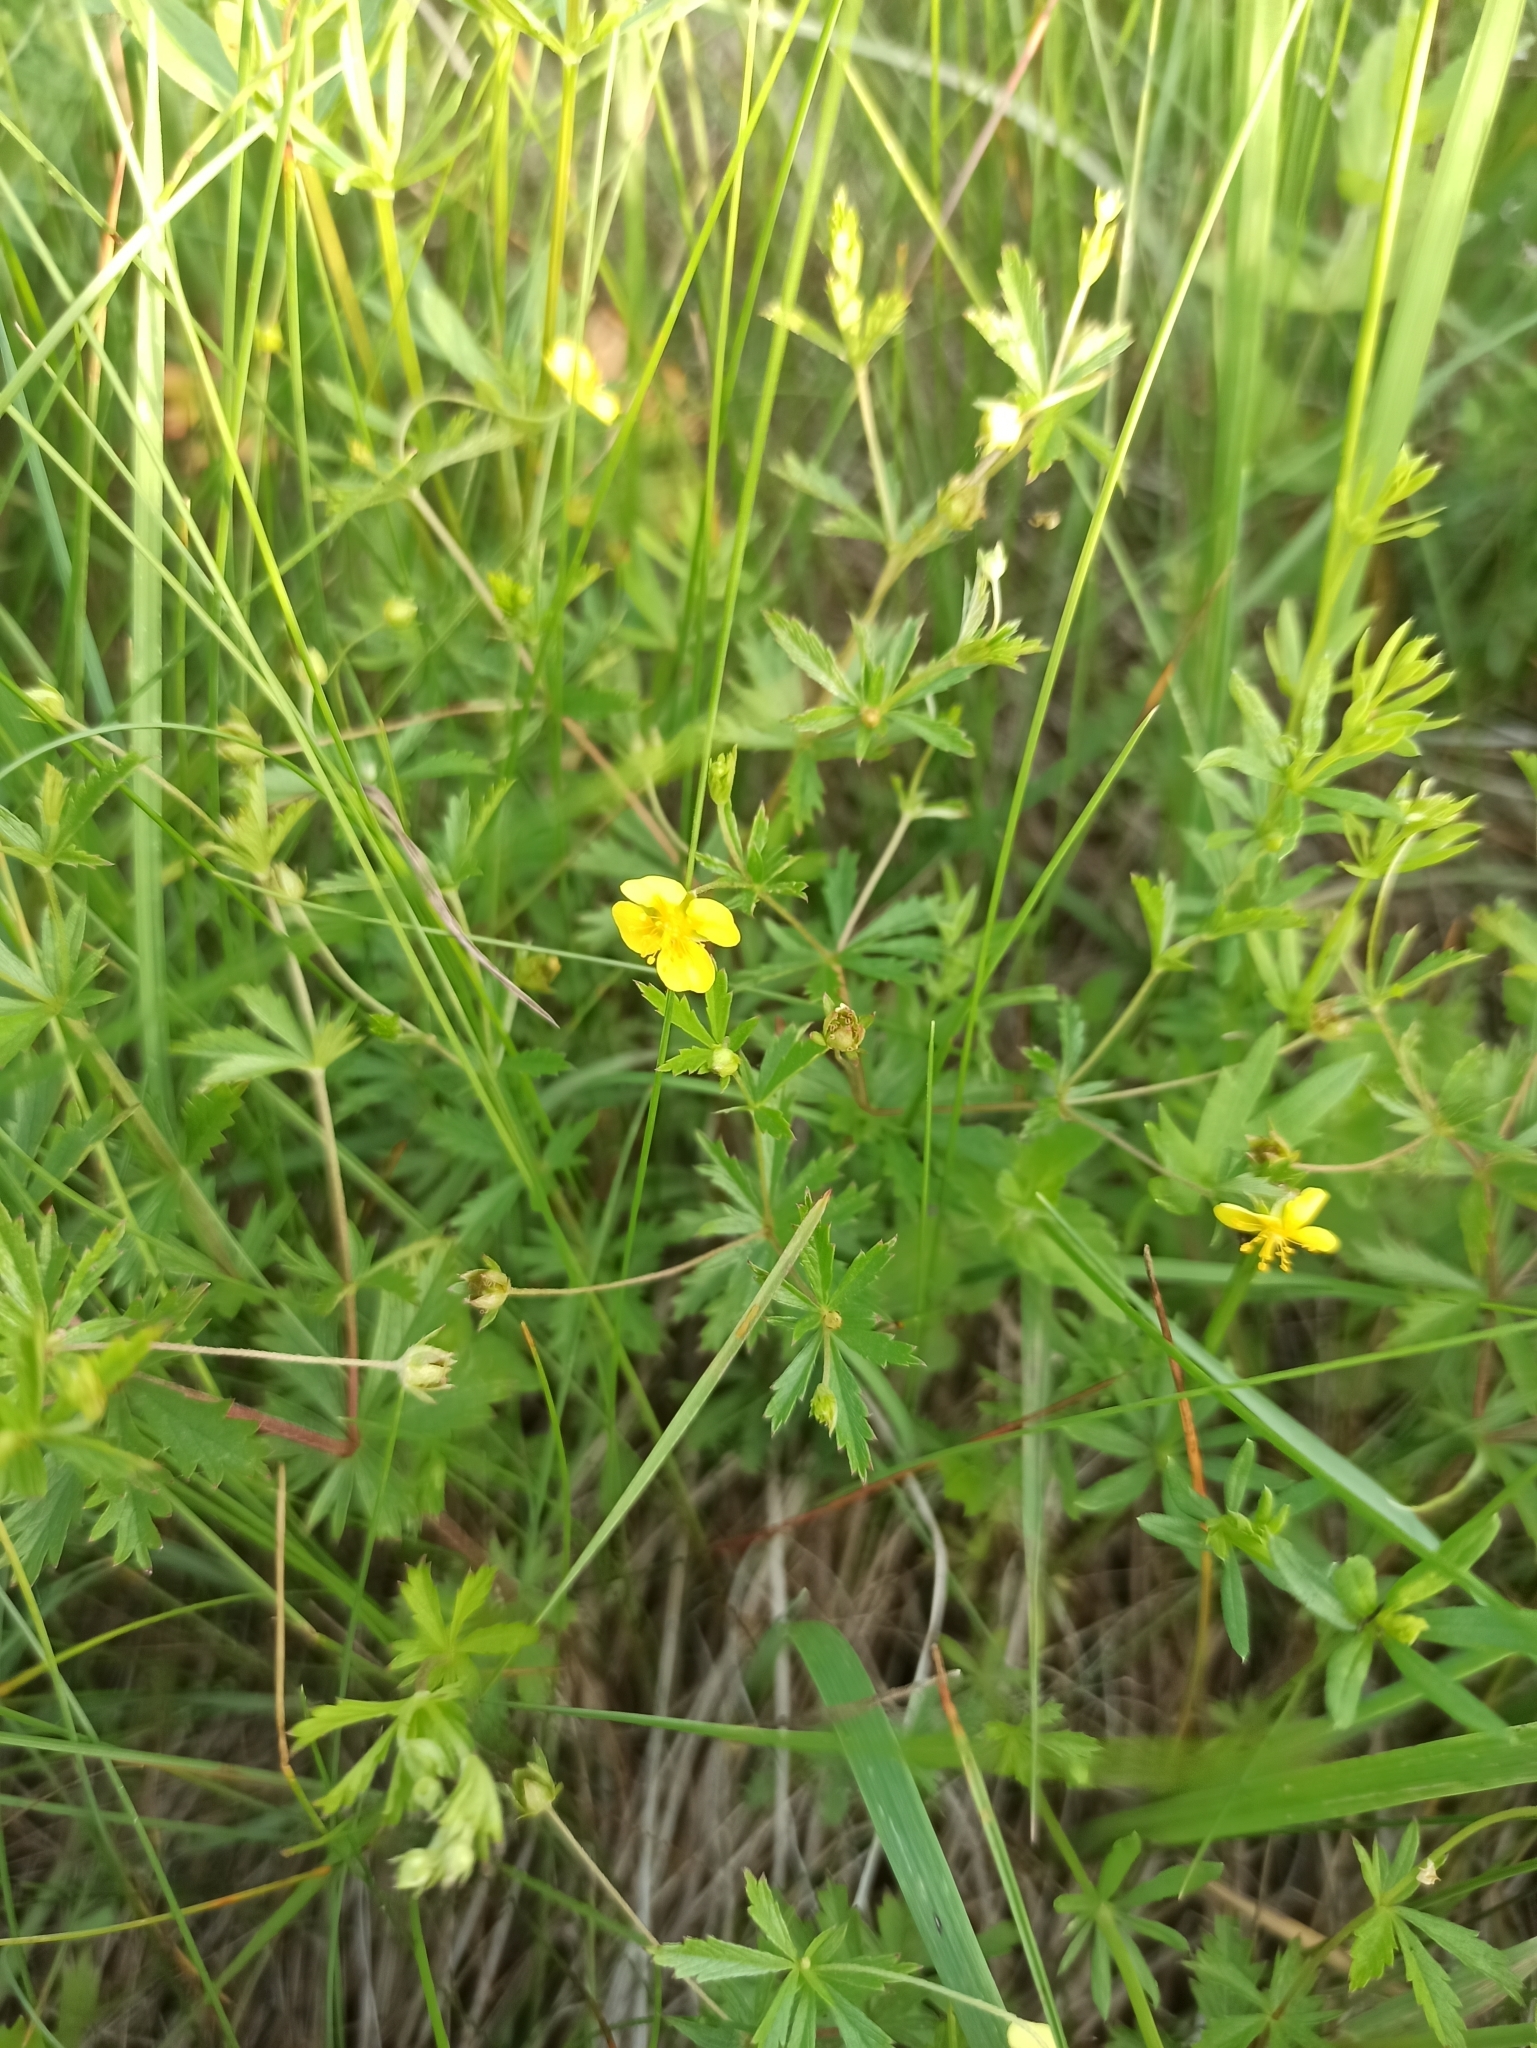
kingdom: Plantae
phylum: Tracheophyta
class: Magnoliopsida
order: Rosales
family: Rosaceae
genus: Potentilla
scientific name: Potentilla erecta
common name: Tormentil
